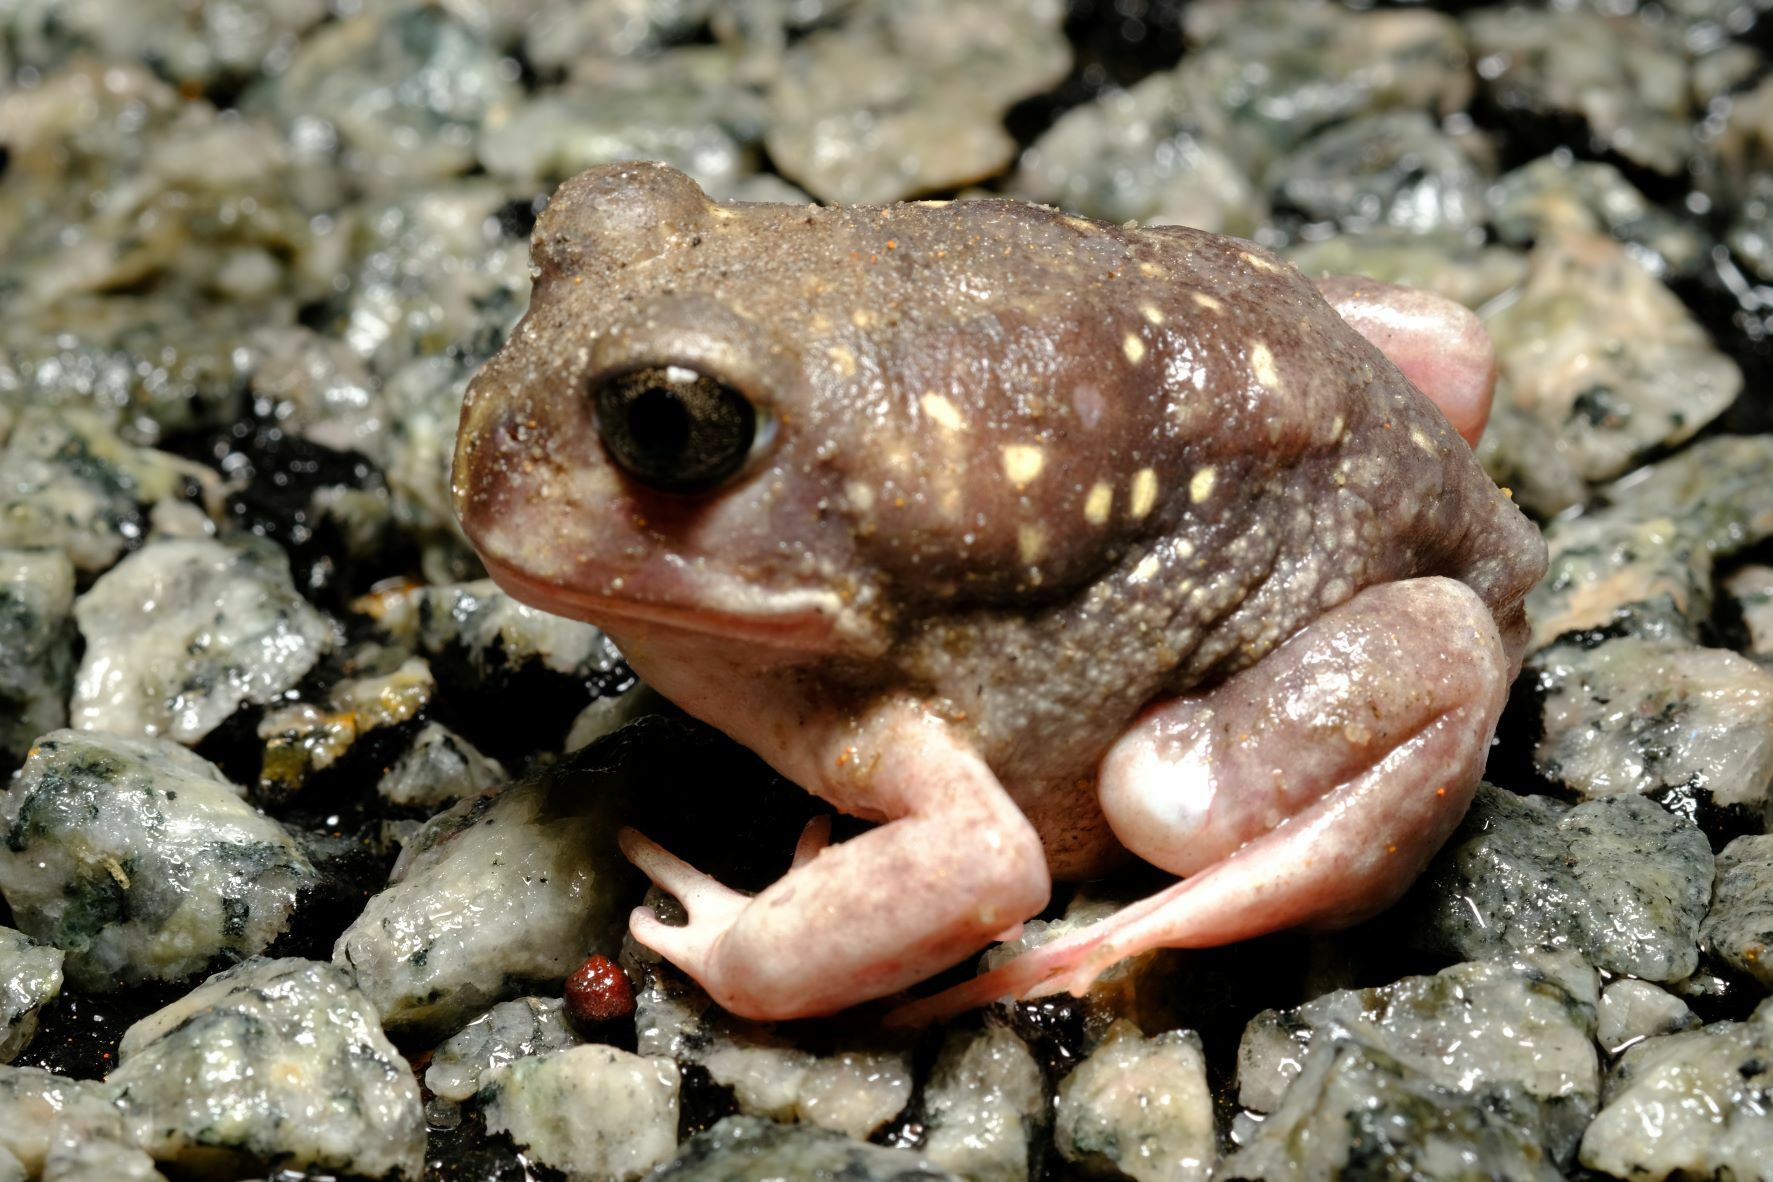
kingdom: Animalia
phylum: Chordata
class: Amphibia
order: Anura
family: Limnodynastidae
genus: Heleioporus
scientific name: Heleioporus albopunctatus
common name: Western spotted frog
